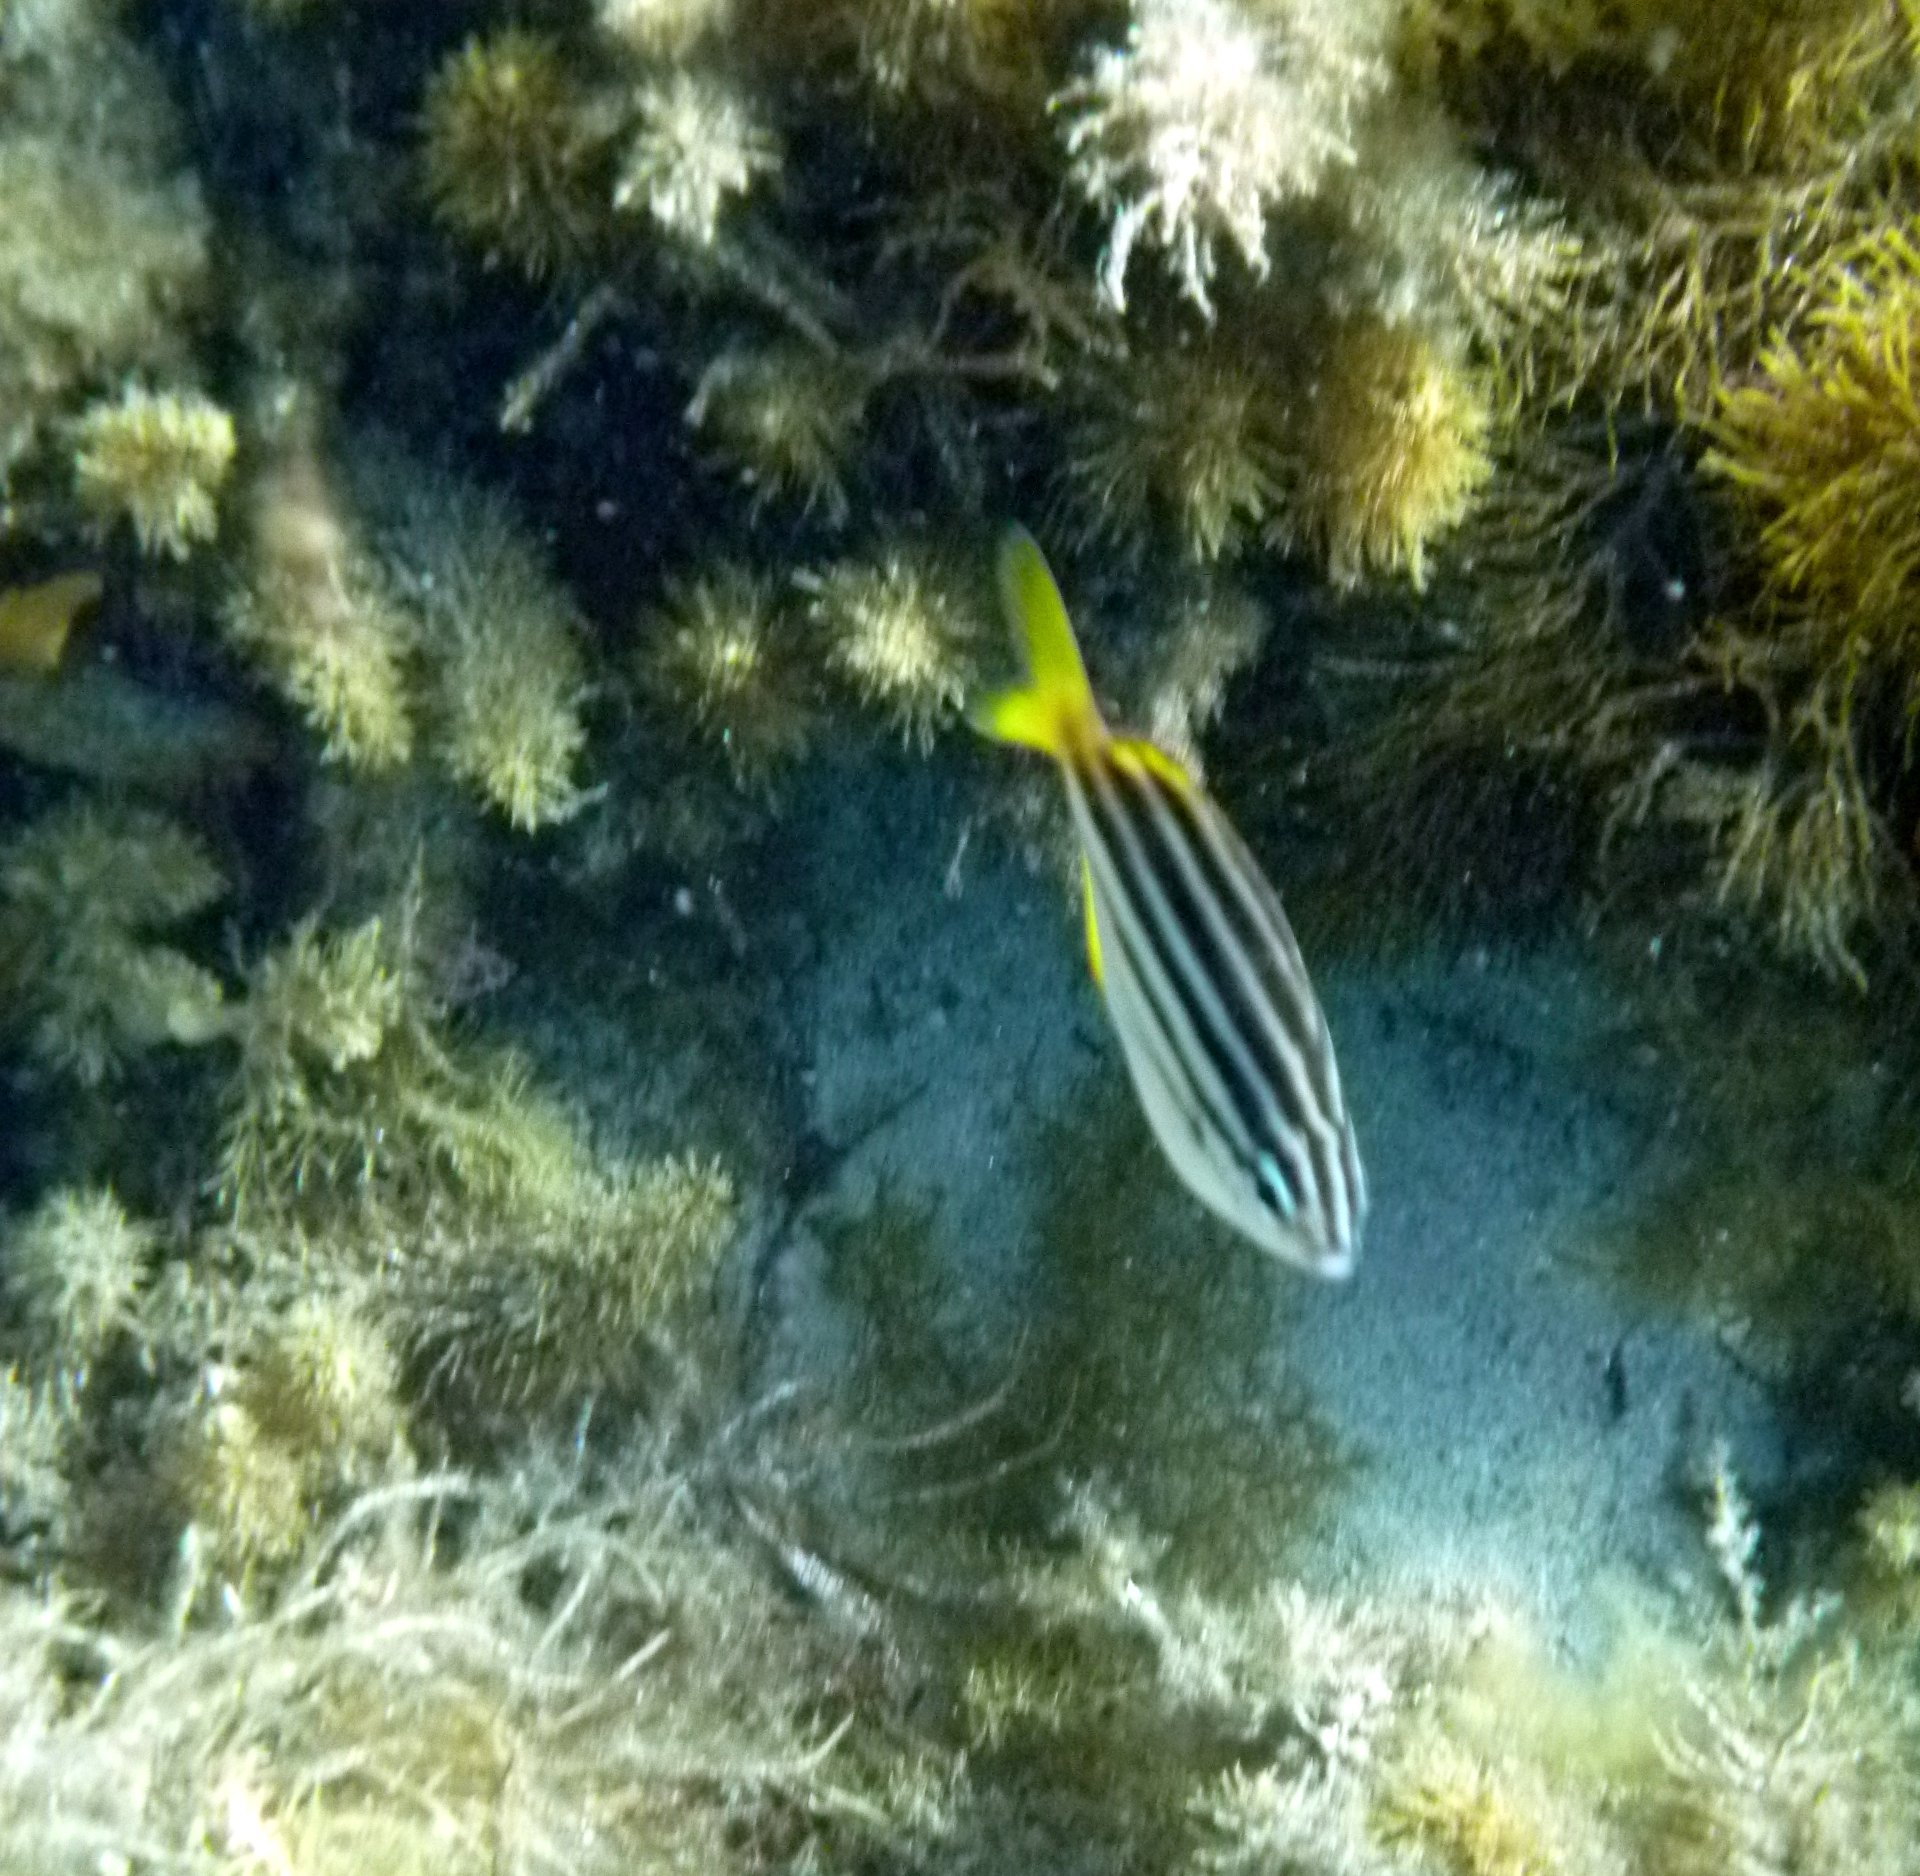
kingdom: Animalia
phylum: Chordata
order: Perciformes
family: Kyphosidae
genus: Atypichthys
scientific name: Atypichthys strigatus
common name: Australian mado
